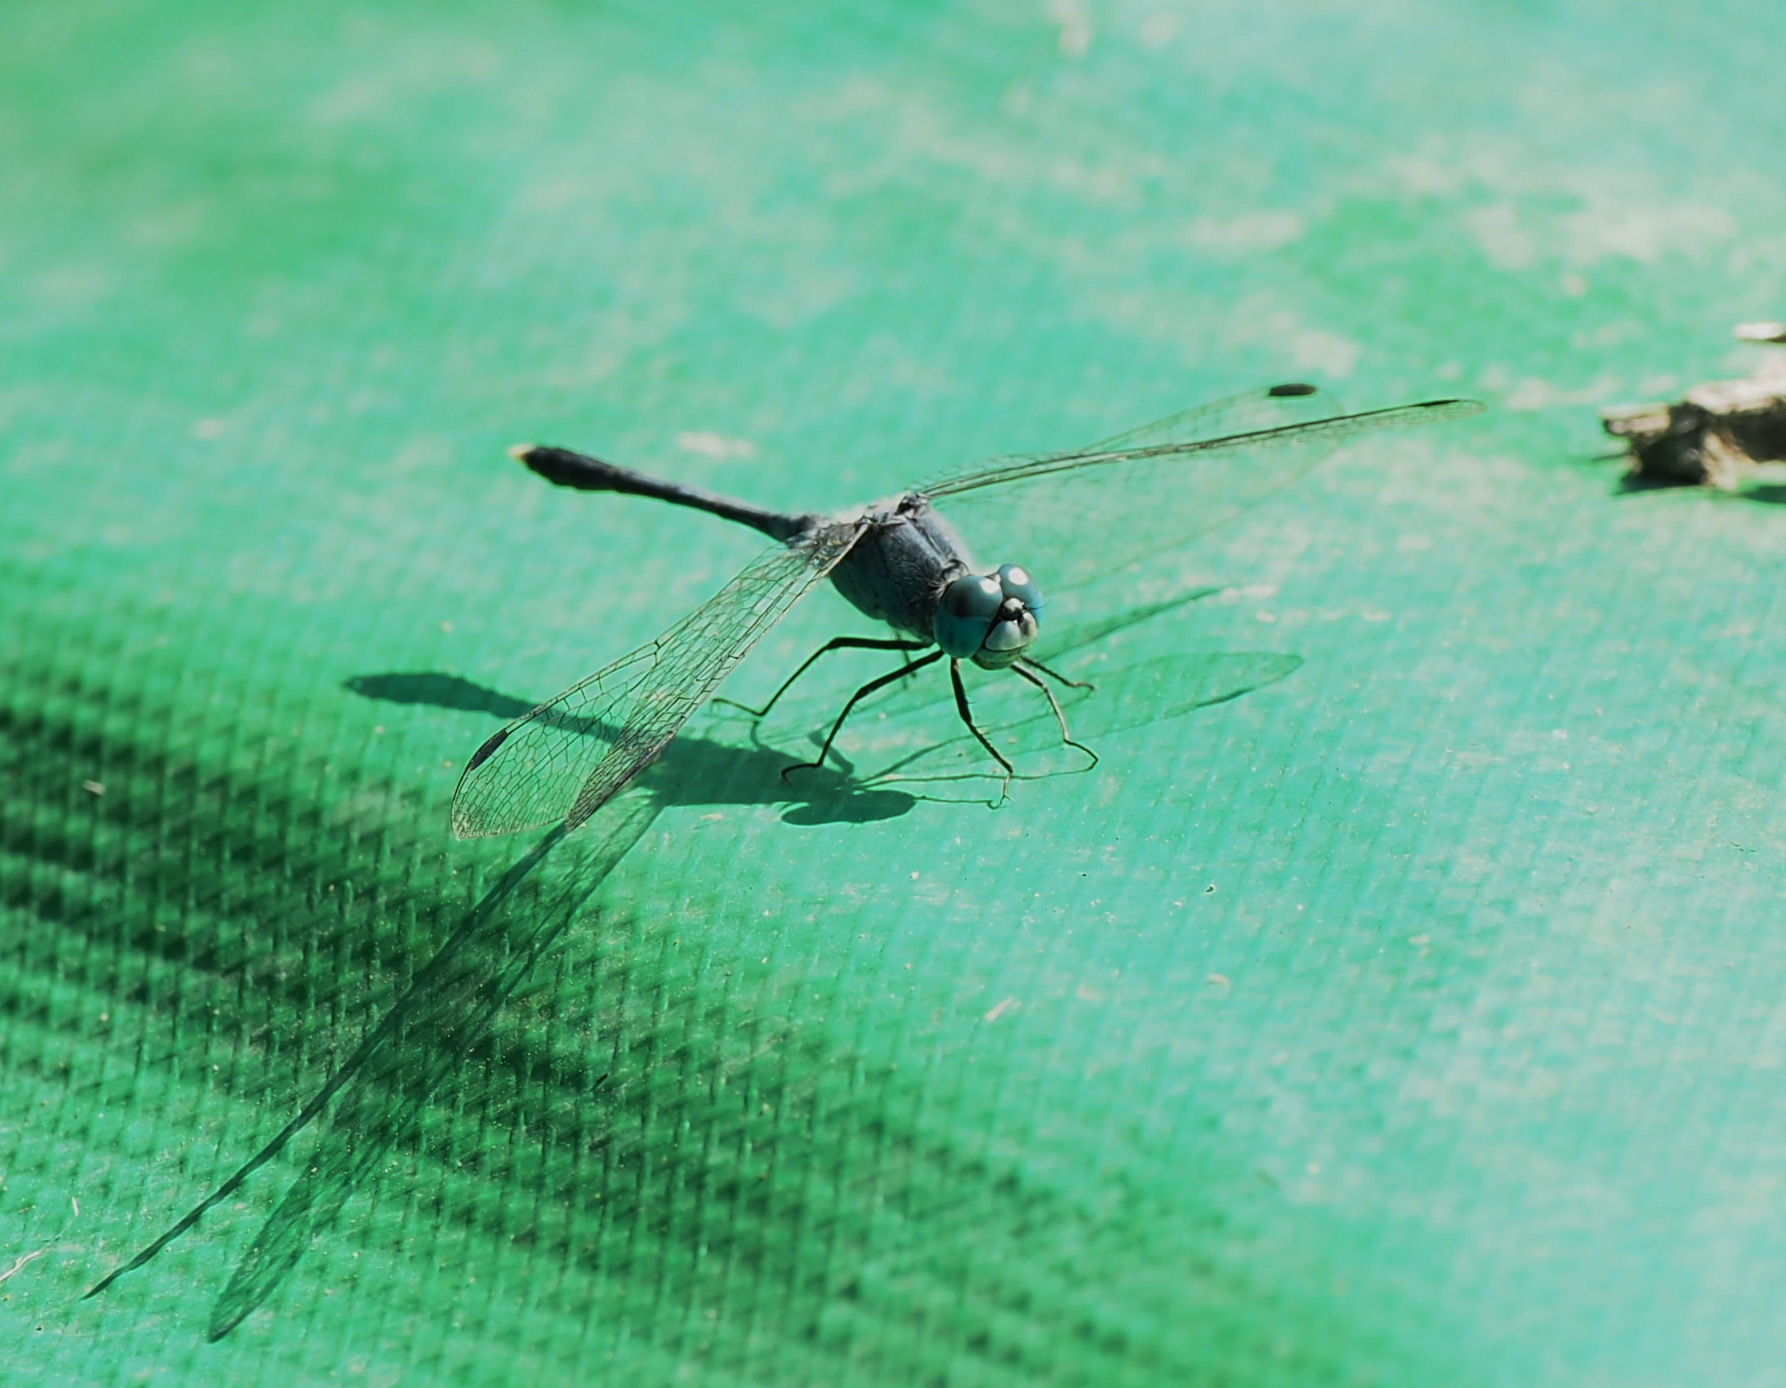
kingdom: Animalia
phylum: Arthropoda
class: Insecta
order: Odonata
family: Libellulidae
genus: Diplacodes
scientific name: Diplacodes trivialis
